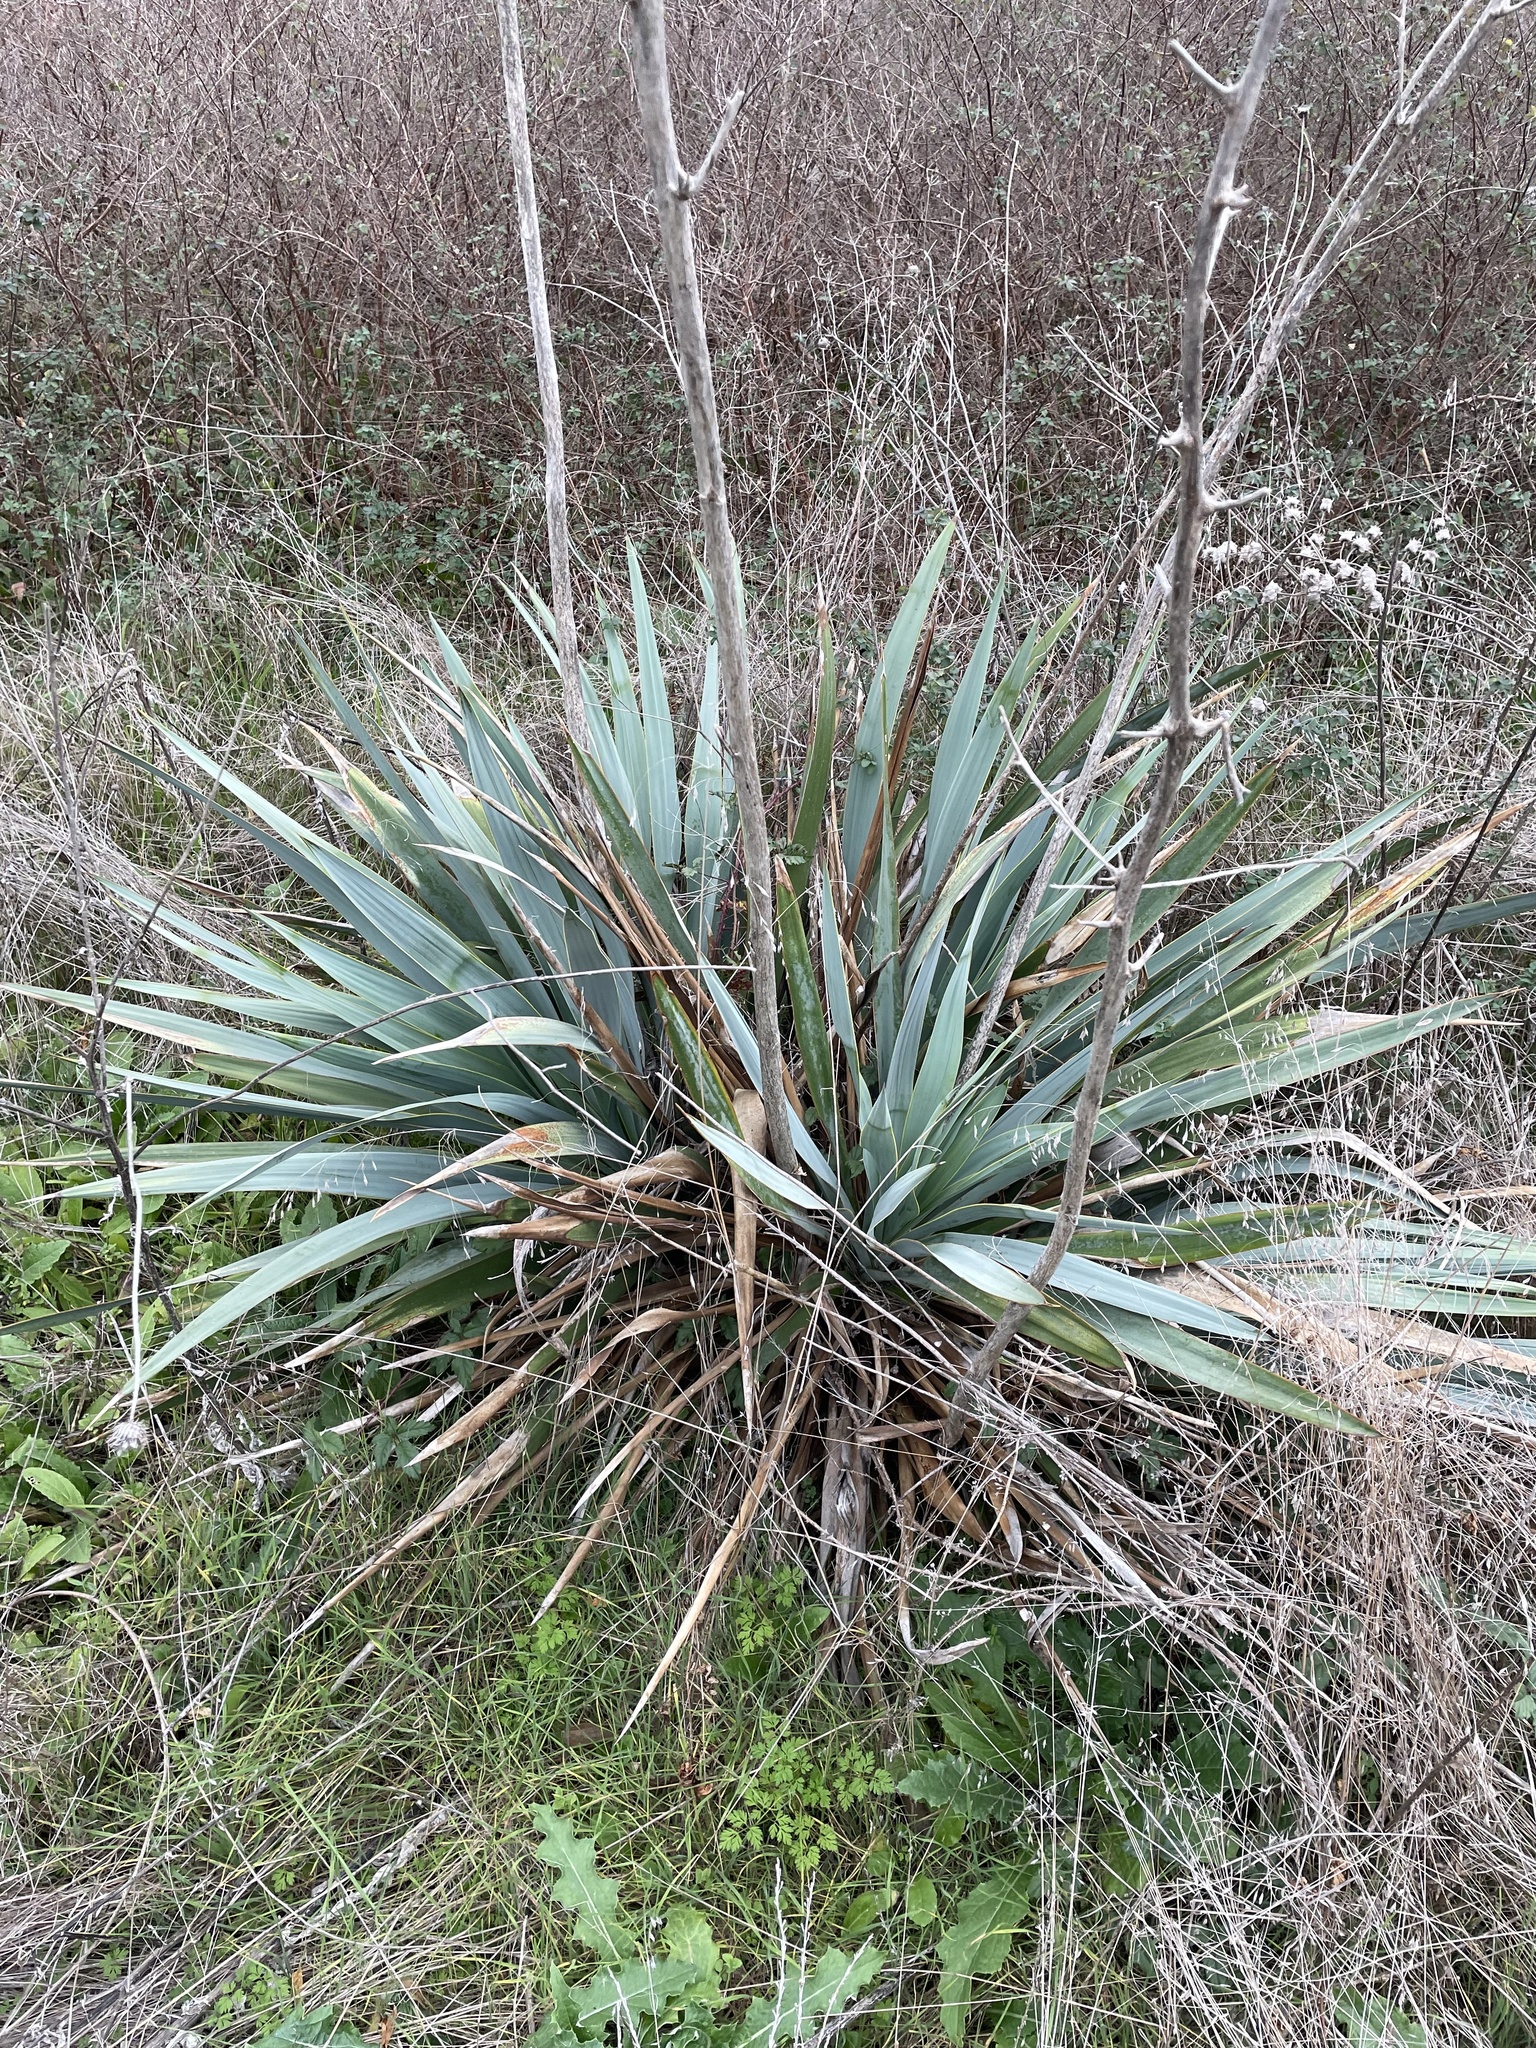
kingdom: Plantae
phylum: Tracheophyta
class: Liliopsida
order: Asparagales
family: Asparagaceae
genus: Yucca
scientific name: Yucca pallida
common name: Pale leaf yucca
